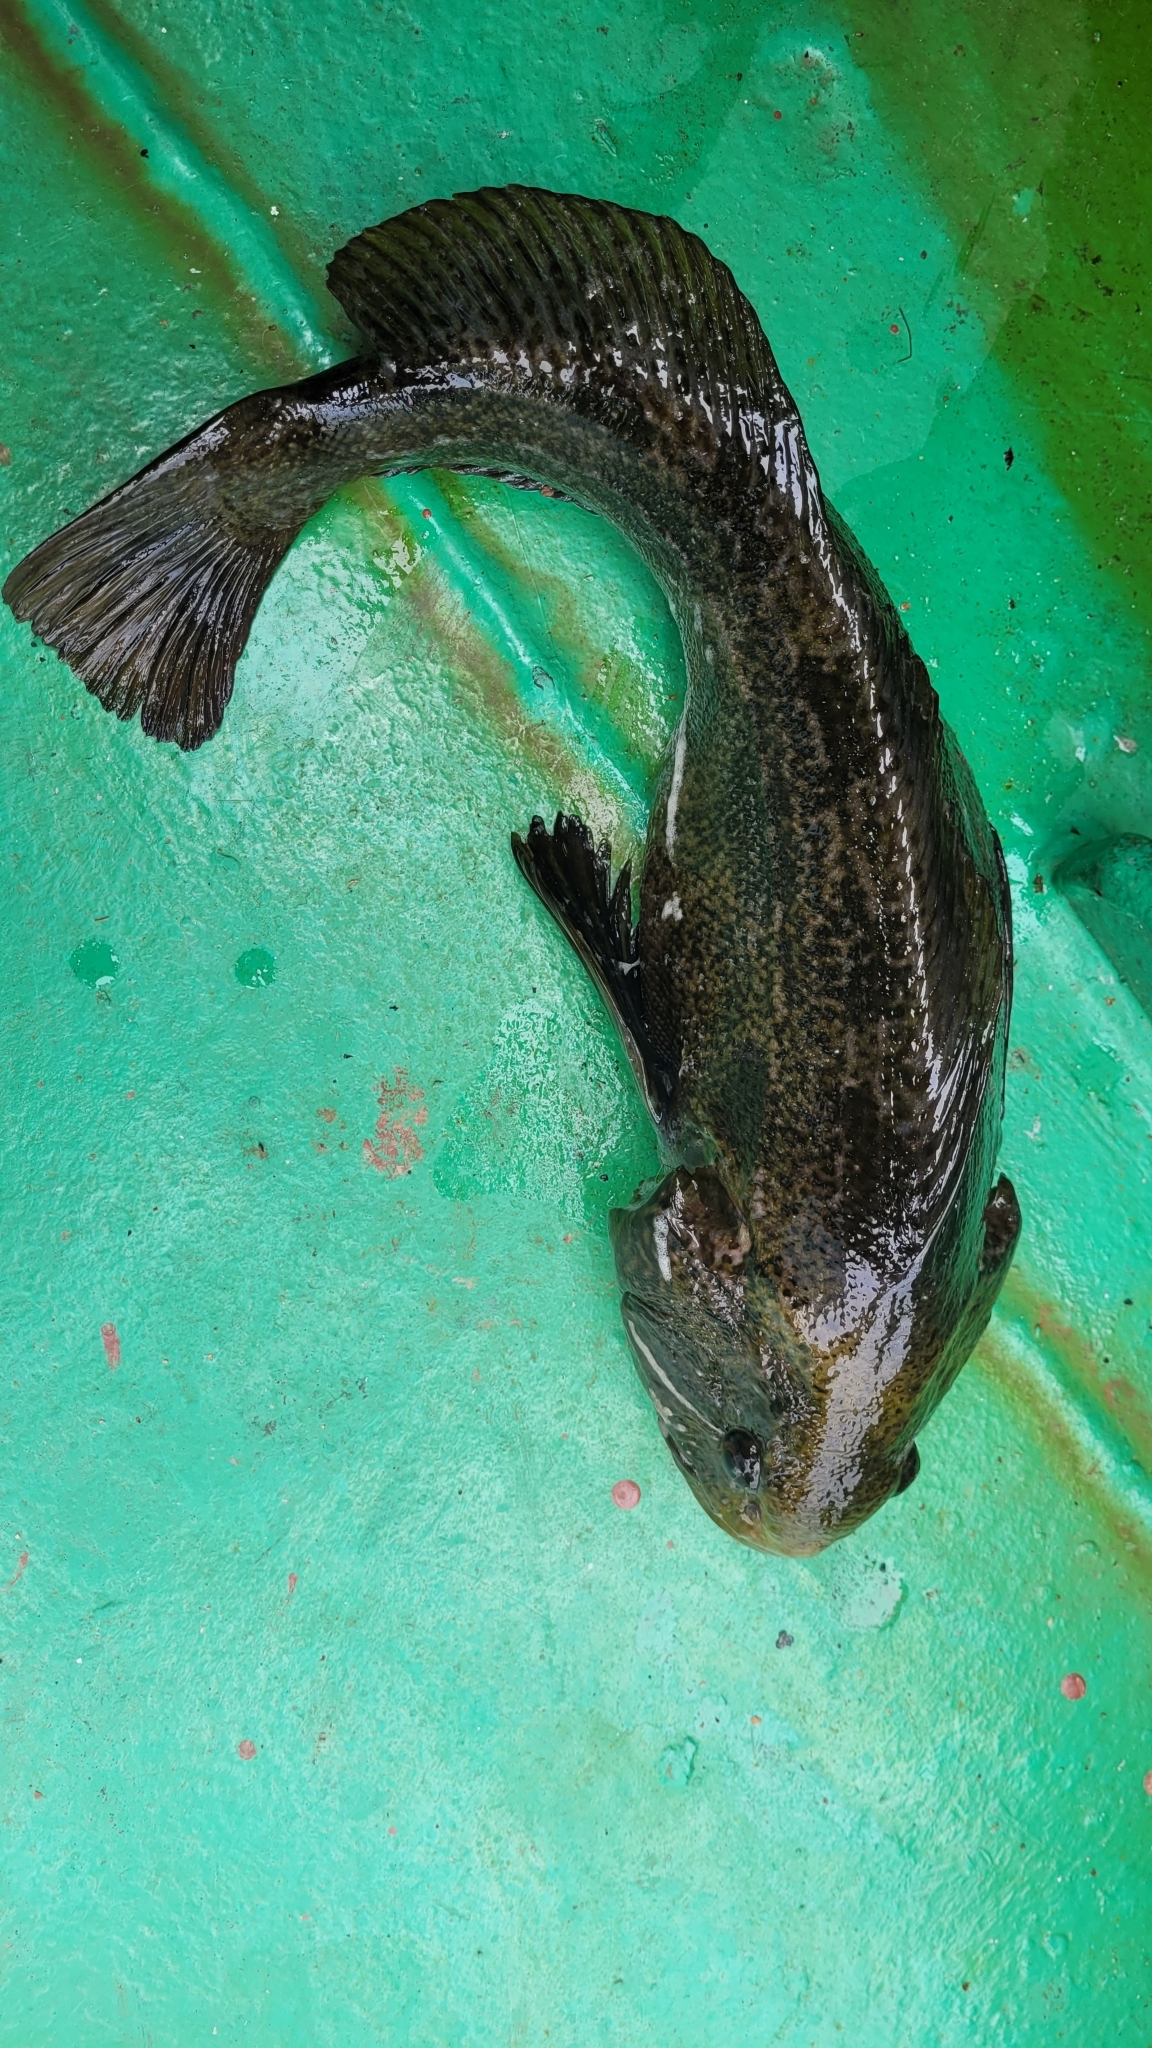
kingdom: Animalia
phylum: Chordata
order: Scorpaeniformes
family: Hexagrammidae
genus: Hexagrammos
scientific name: Hexagrammos otakii
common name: Fat greenling
